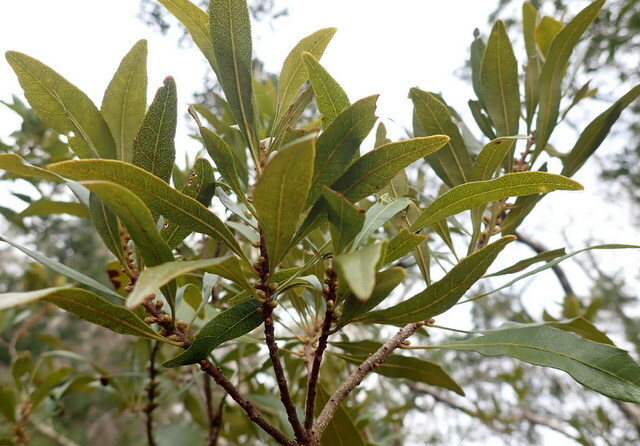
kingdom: Plantae
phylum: Tracheophyta
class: Magnoliopsida
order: Fagales
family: Myricaceae
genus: Morella
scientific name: Morella cerifera
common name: Wax myrtle
